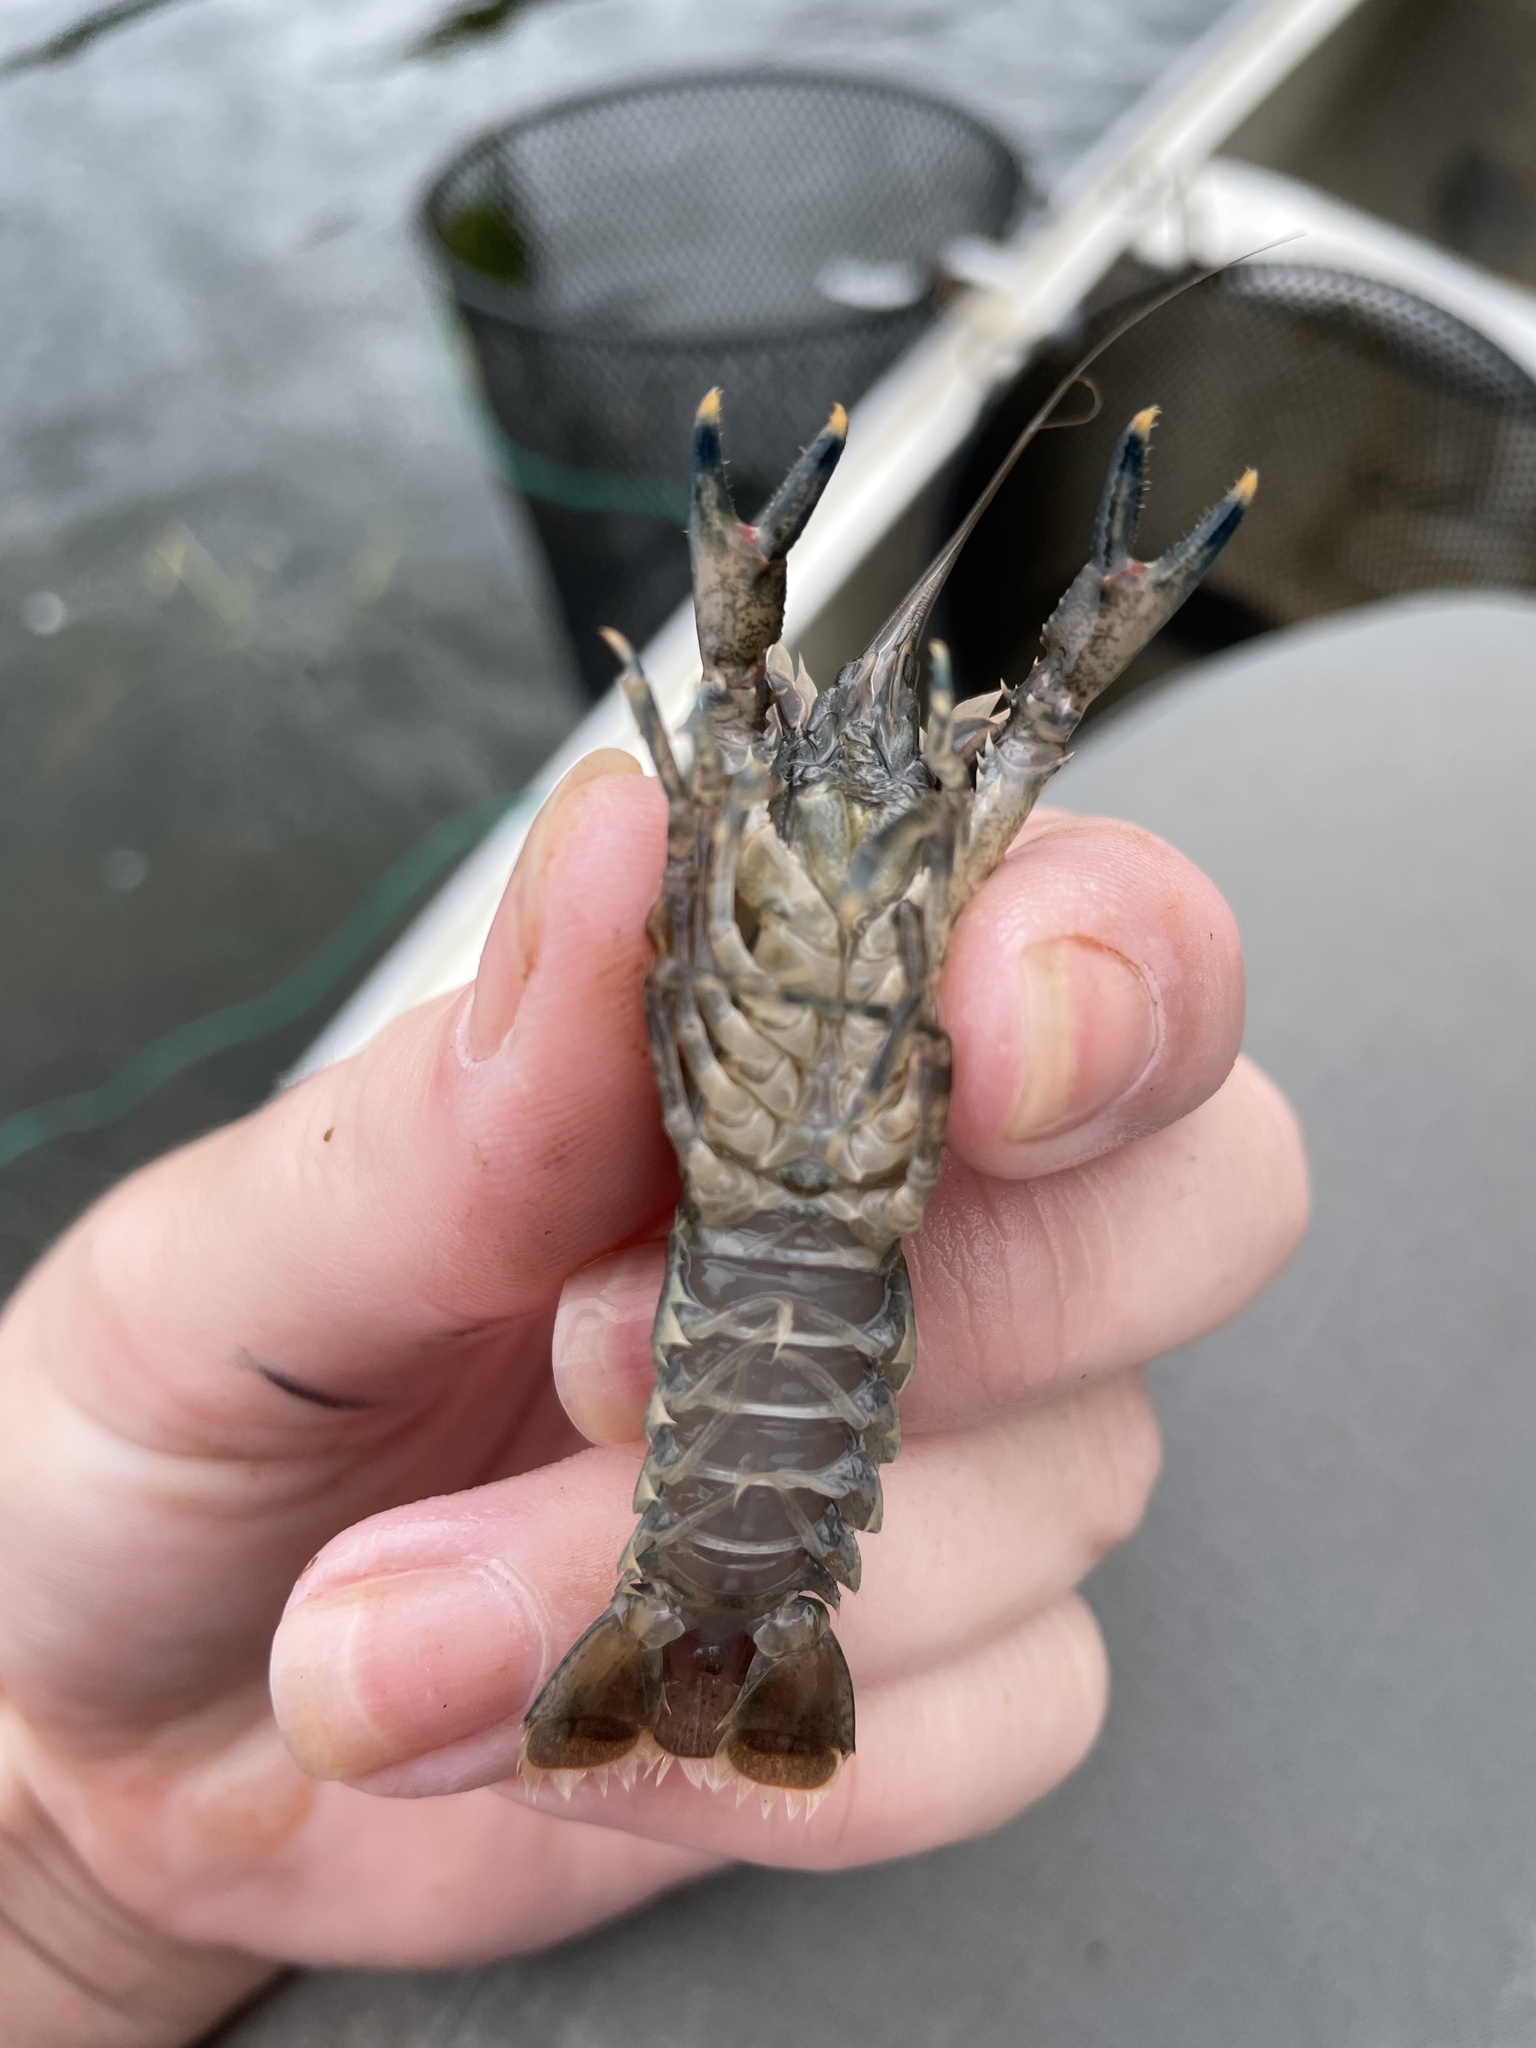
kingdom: Animalia
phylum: Arthropoda
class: Malacostraca
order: Decapoda
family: Cambaridae
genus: Faxonius
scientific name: Faxonius limosus
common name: American crayfish
